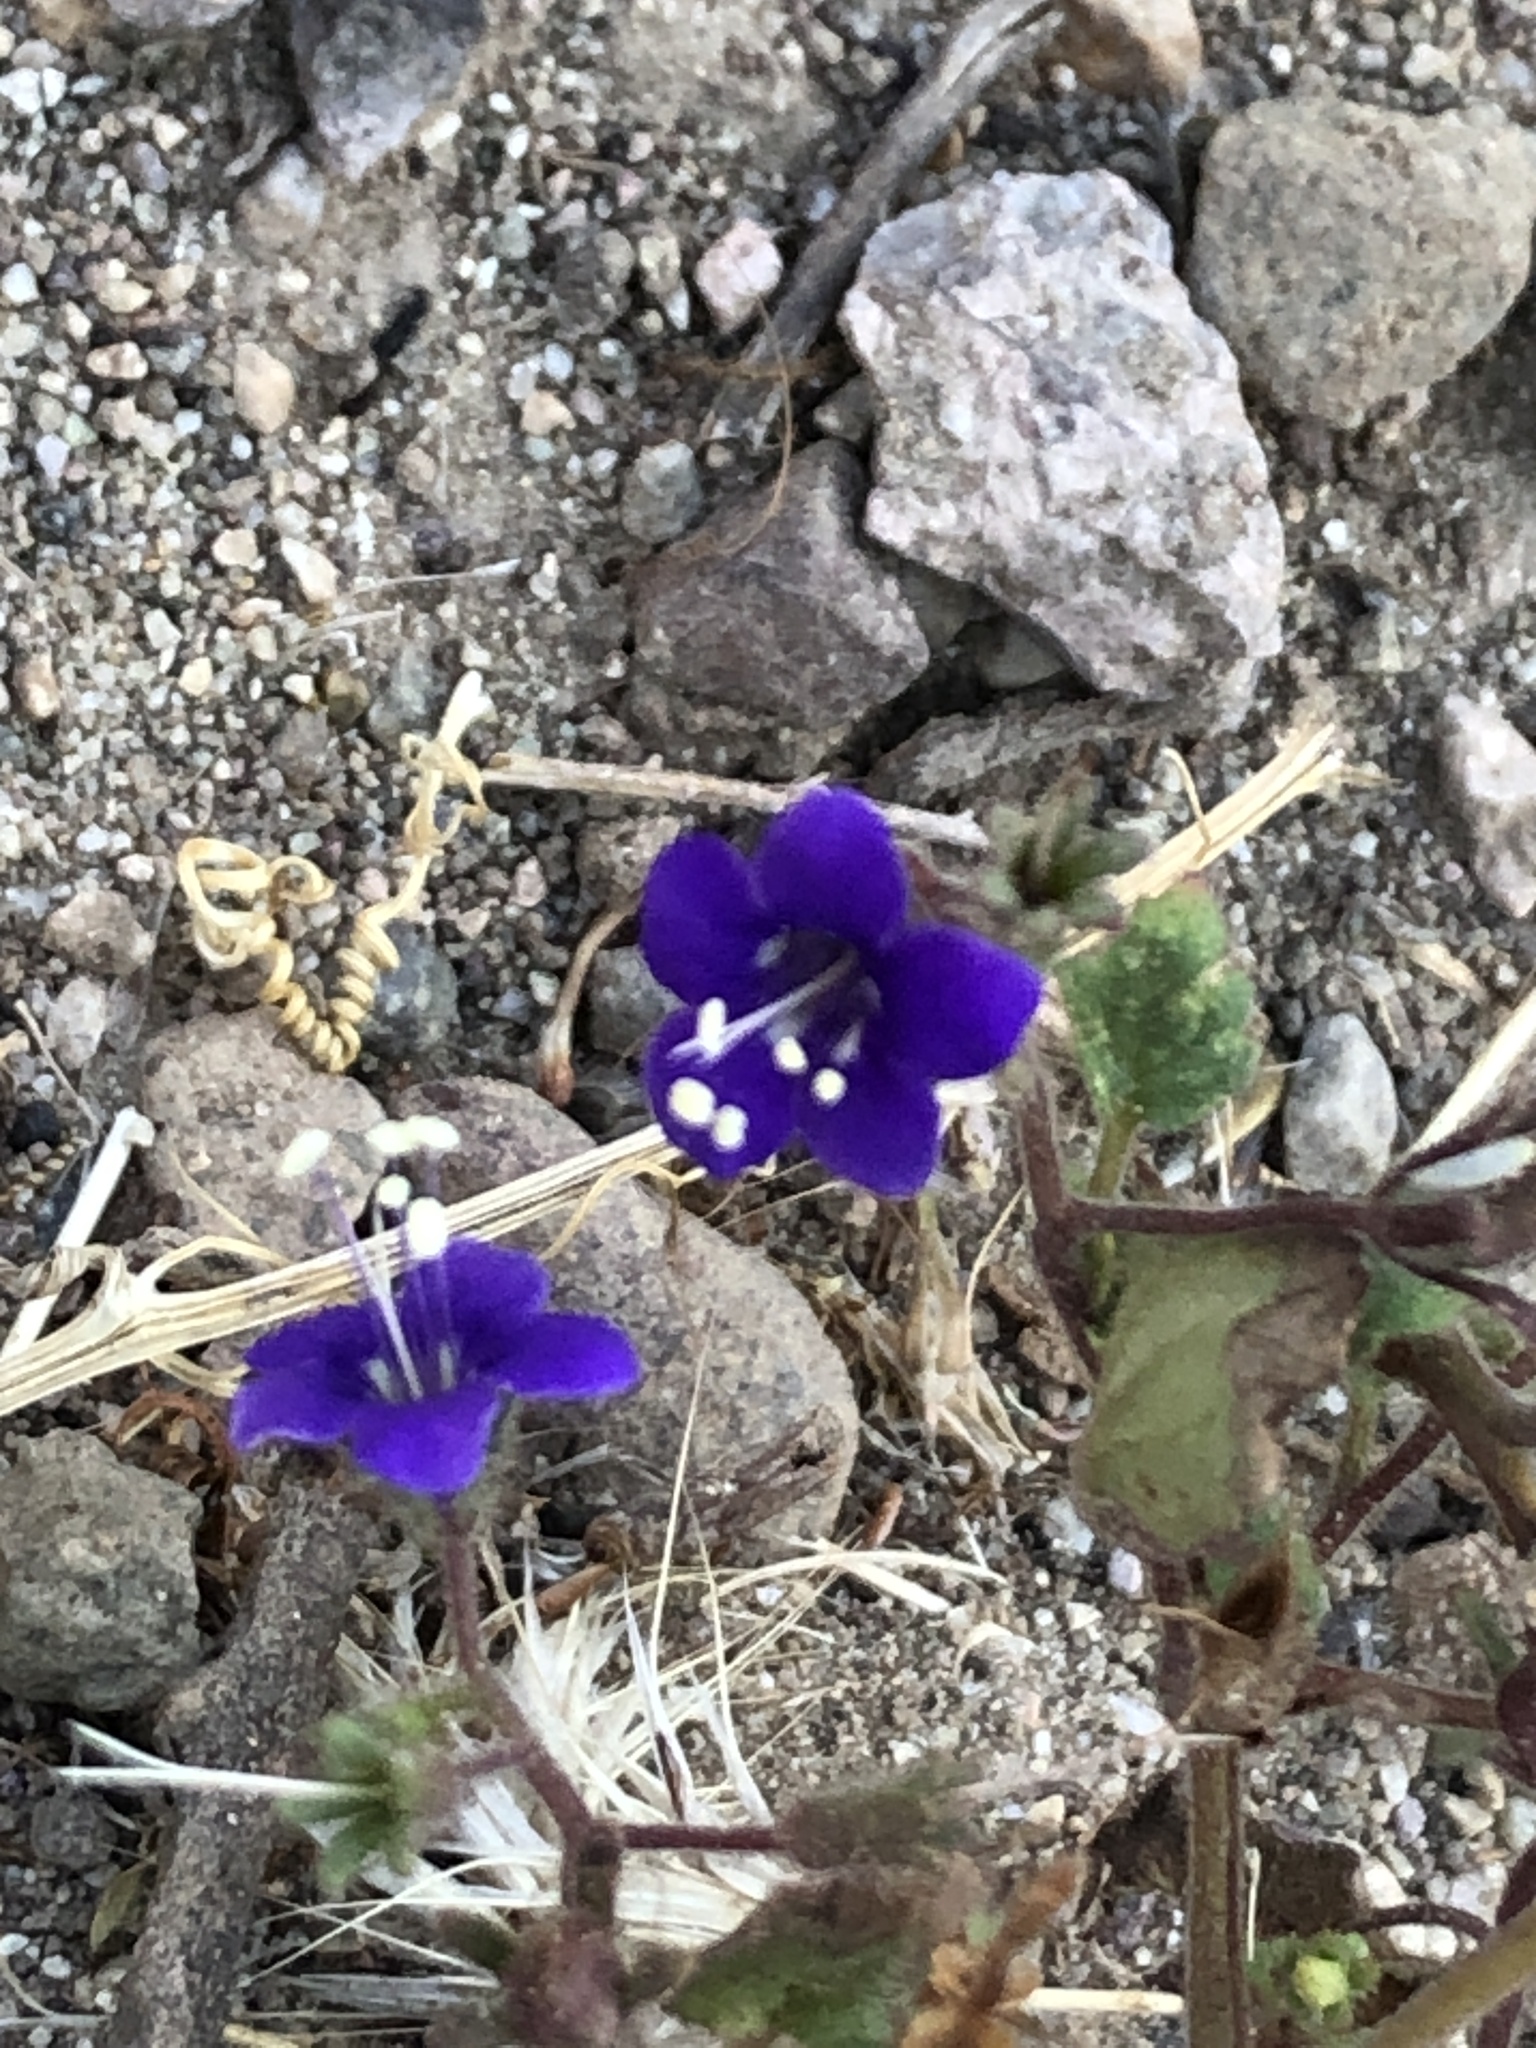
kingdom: Plantae
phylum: Tracheophyta
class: Magnoliopsida
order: Boraginales
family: Hydrophyllaceae
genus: Phacelia
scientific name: Phacelia parryi
